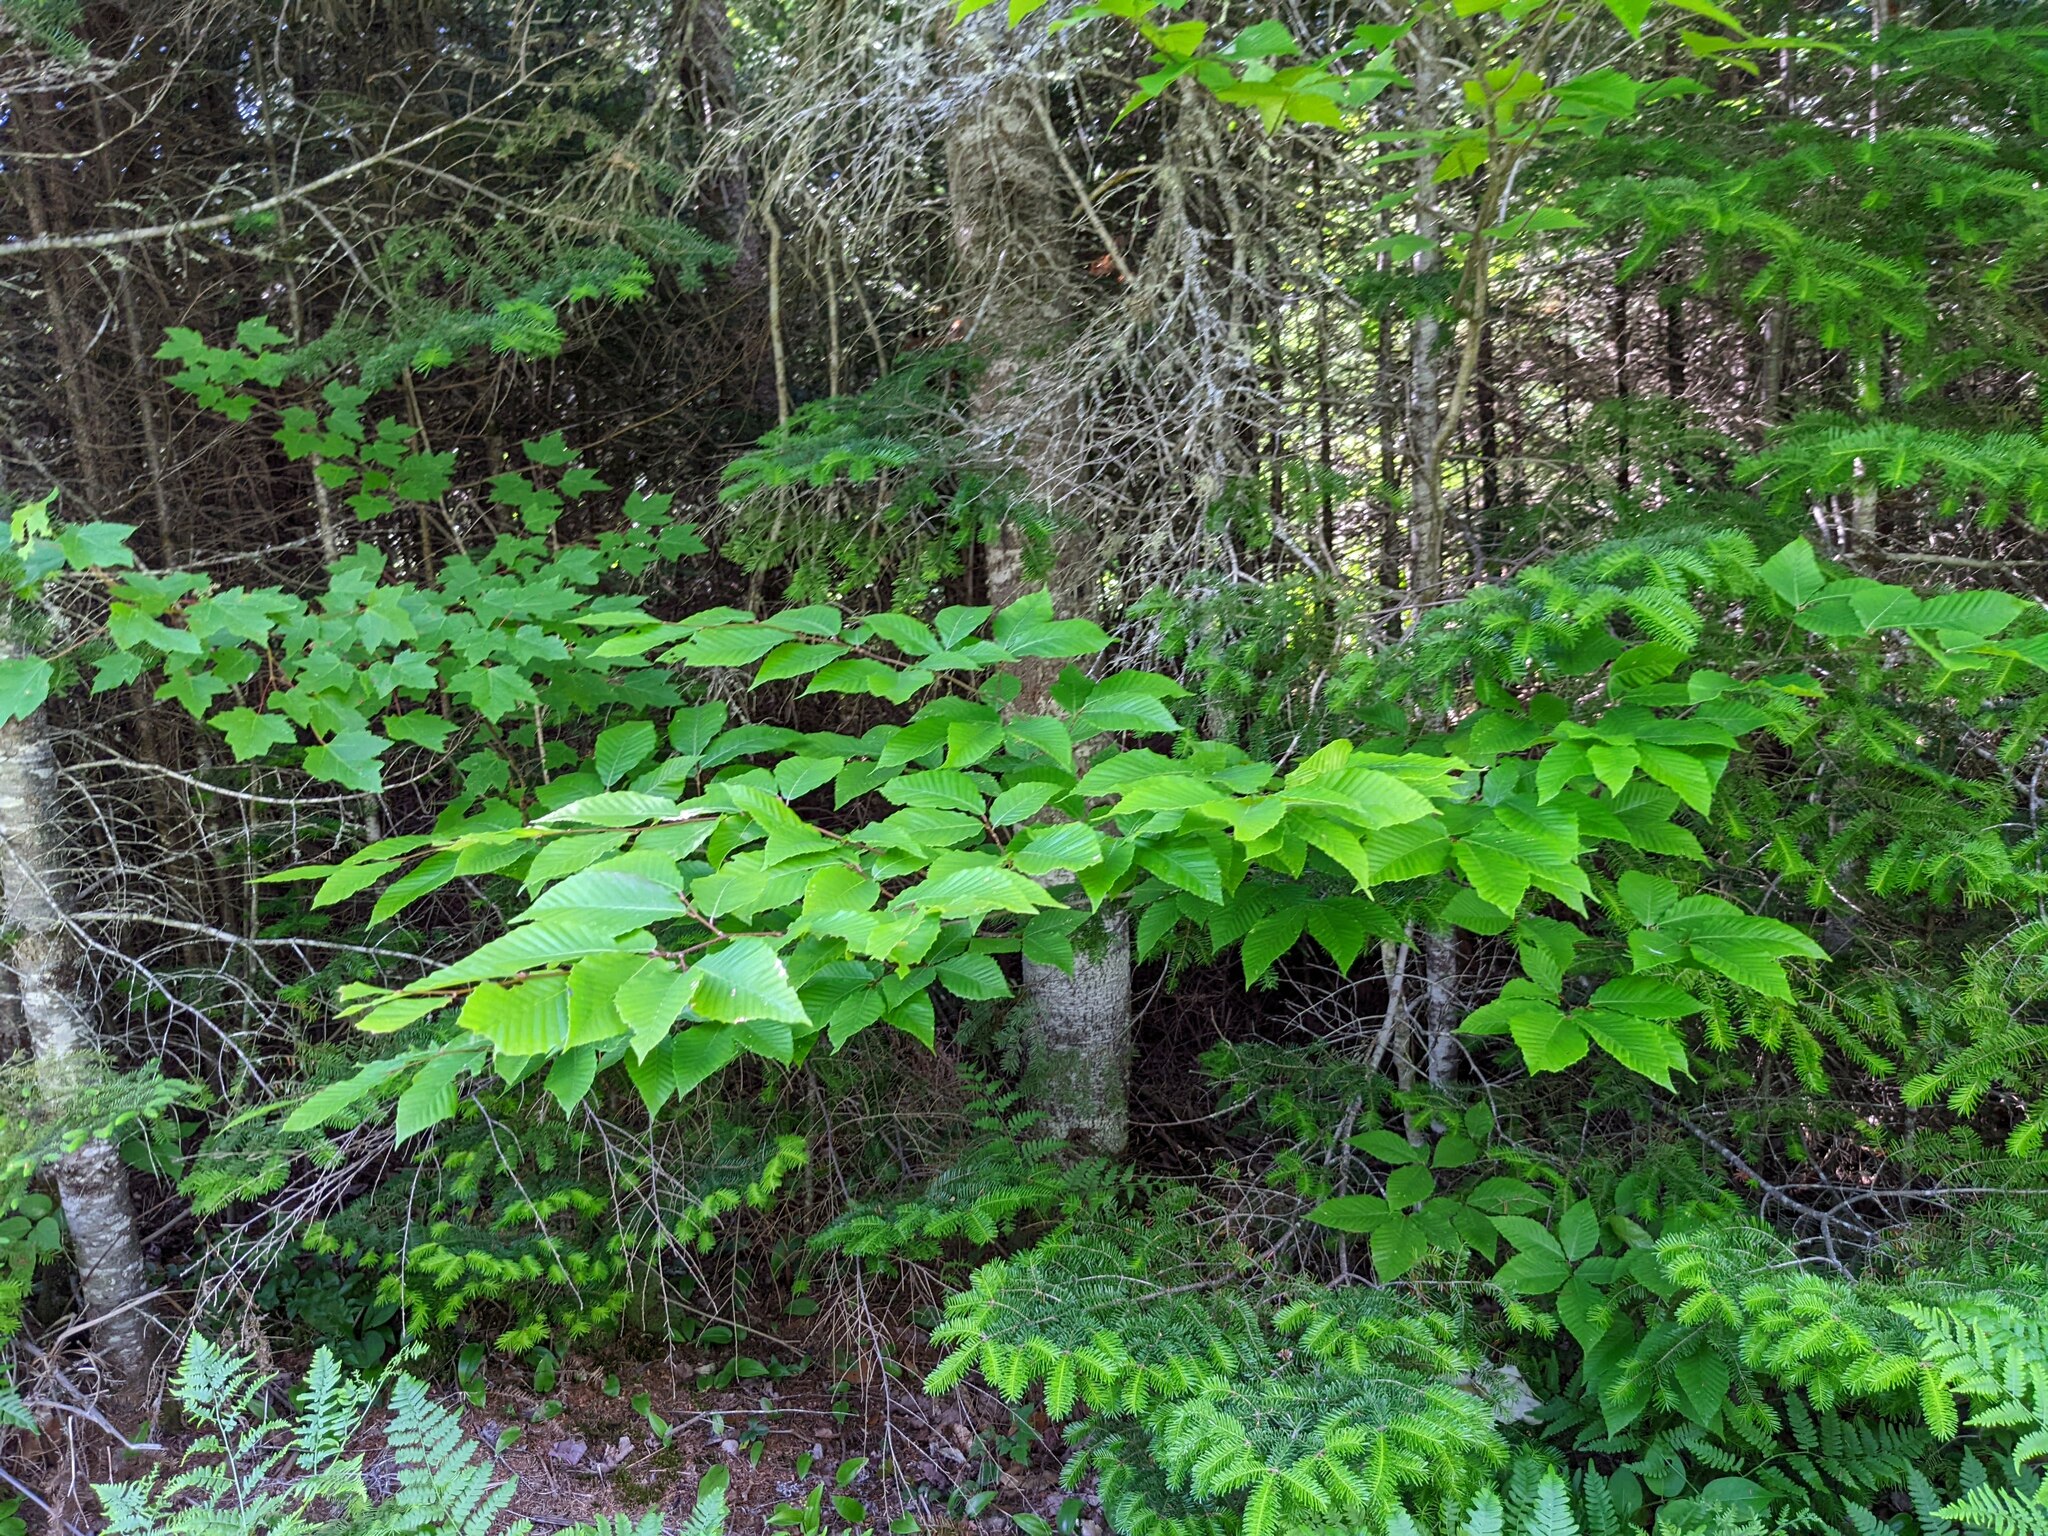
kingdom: Plantae
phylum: Tracheophyta
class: Magnoliopsida
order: Fagales
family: Fagaceae
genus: Fagus
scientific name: Fagus grandifolia
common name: American beech
